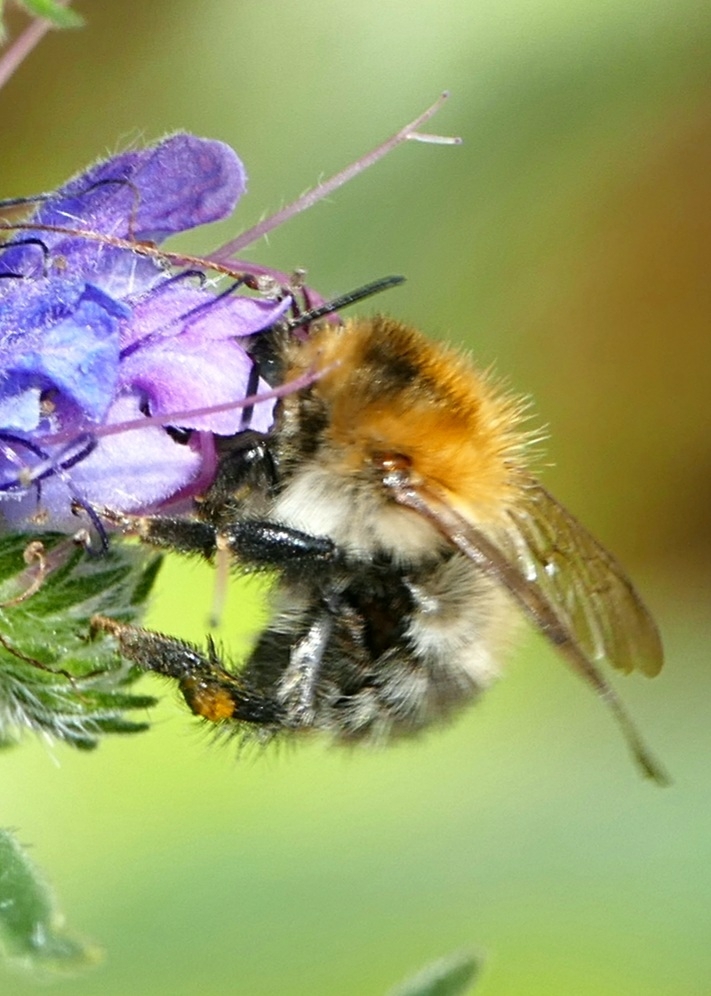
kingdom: Animalia
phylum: Arthropoda
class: Insecta
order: Hymenoptera
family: Apidae
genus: Bombus
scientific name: Bombus pascuorum
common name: Common carder bee
